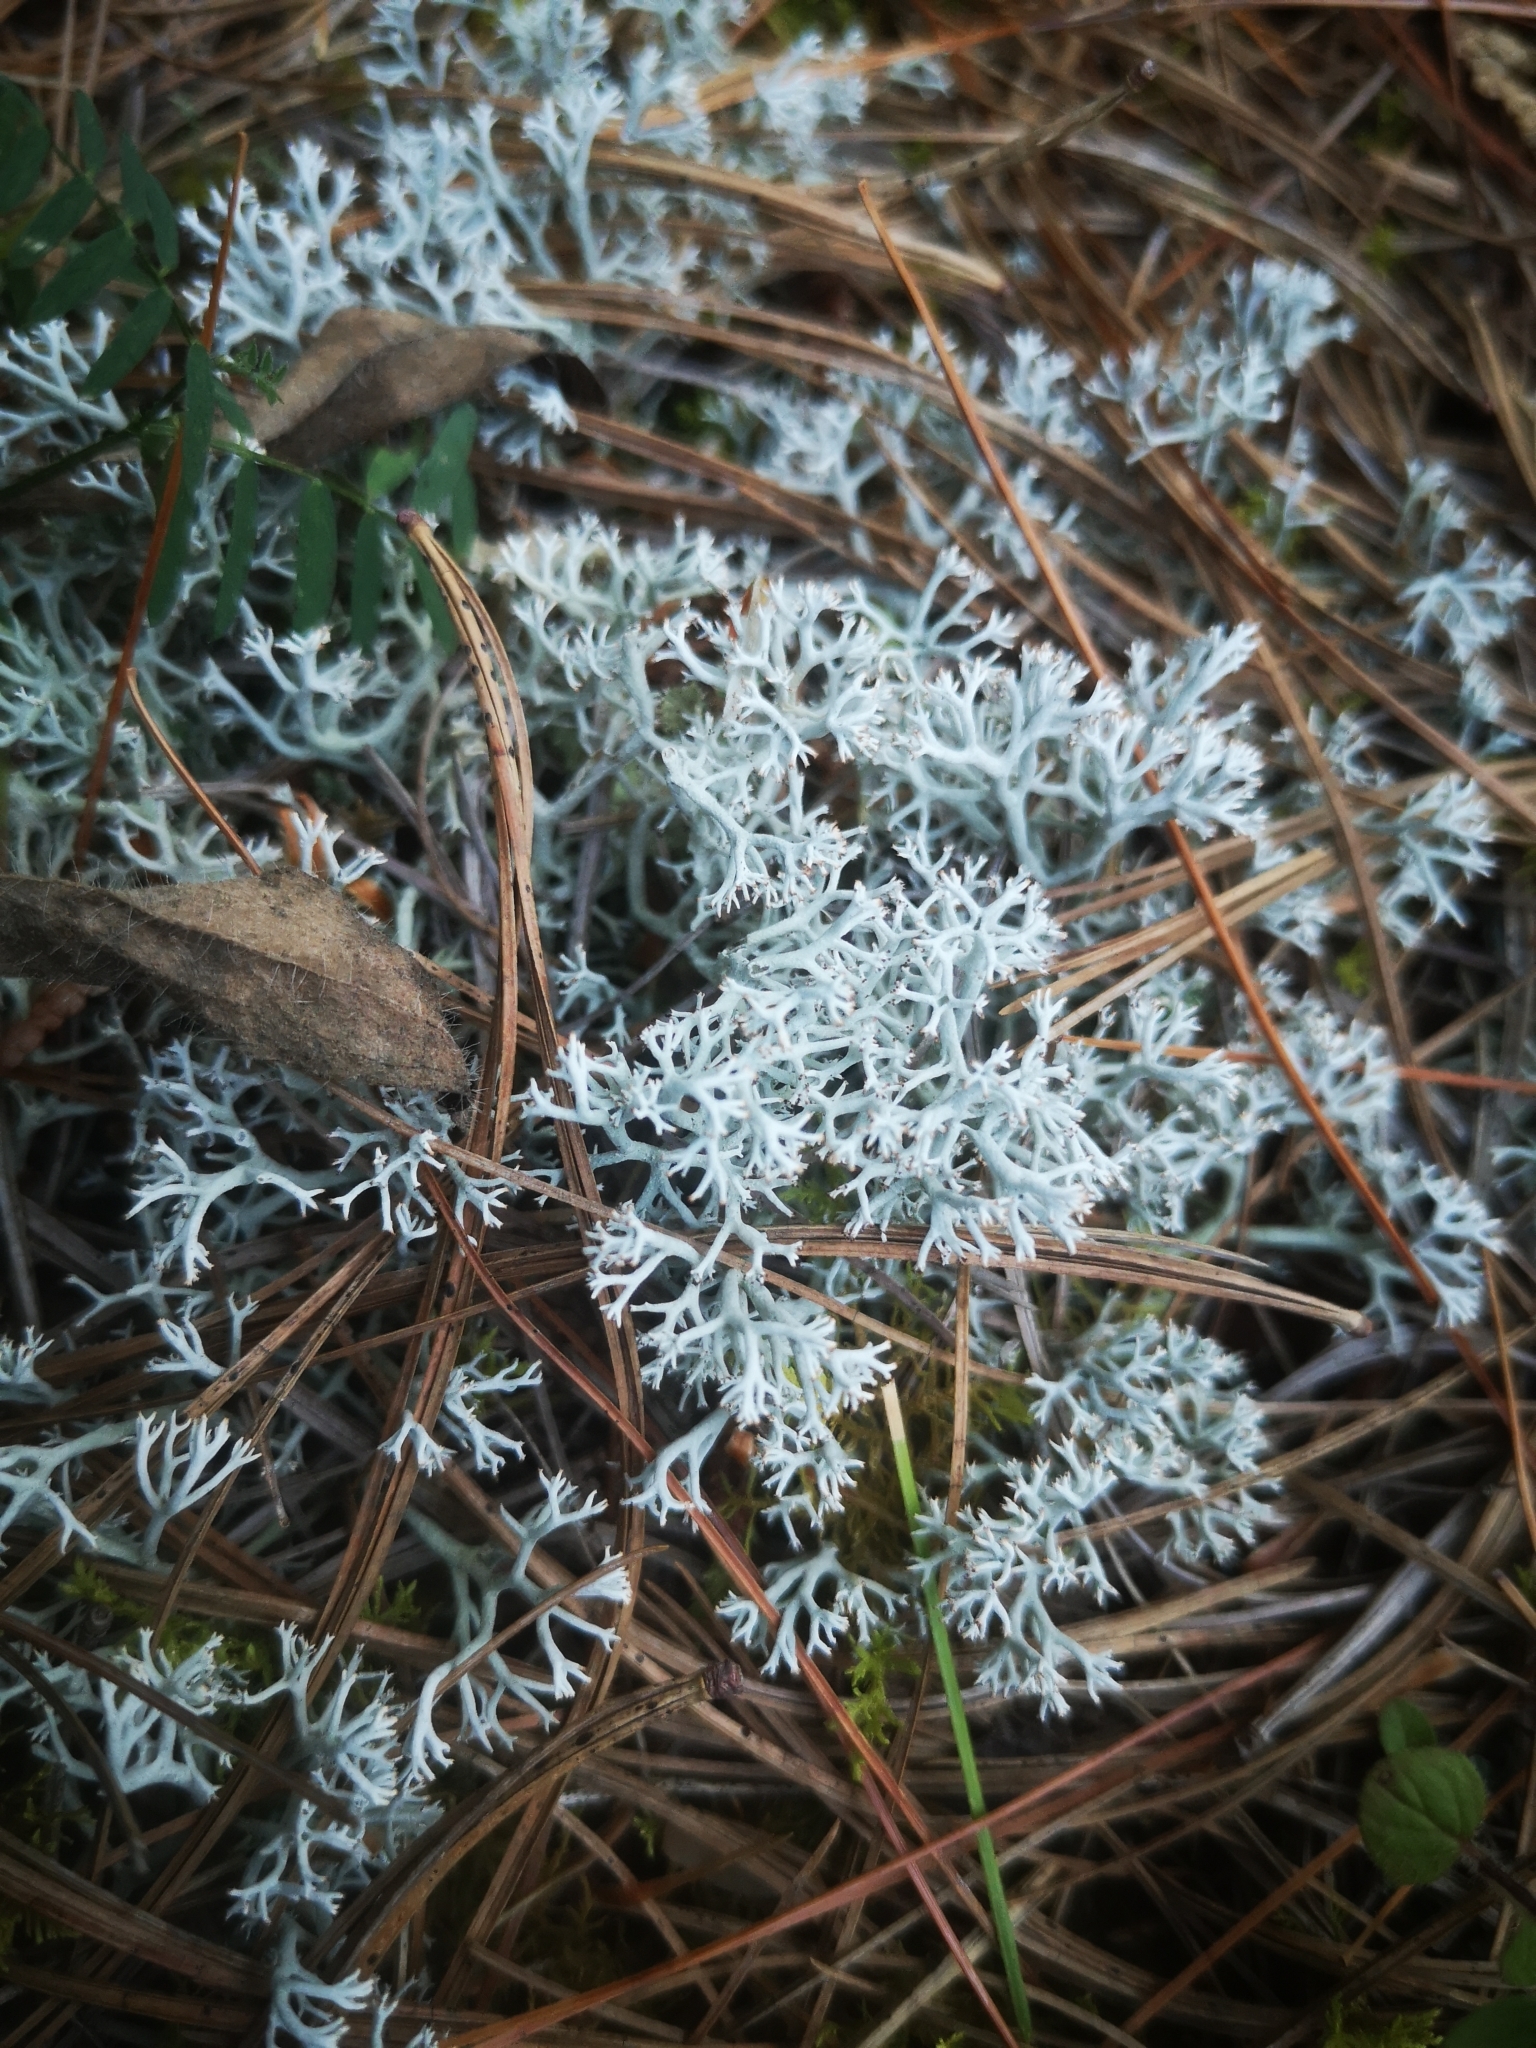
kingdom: Fungi
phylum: Ascomycota
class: Lecanoromycetes
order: Lecanorales
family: Cladoniaceae
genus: Cladonia
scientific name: Cladonia rangiferina
